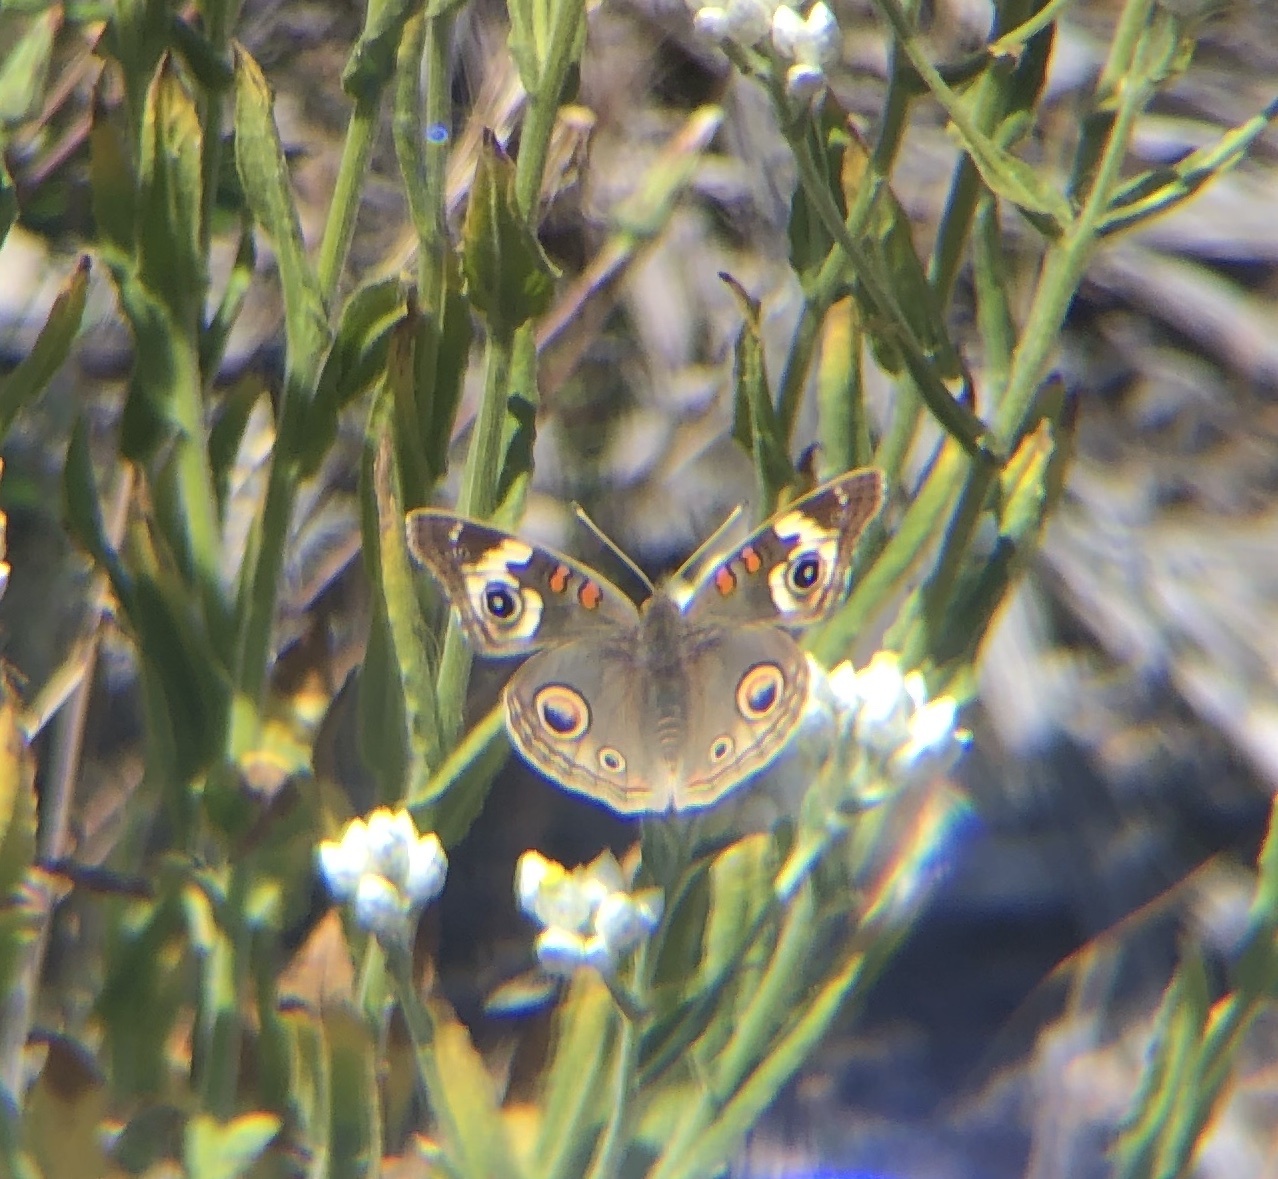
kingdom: Animalia
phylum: Arthropoda
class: Insecta
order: Lepidoptera
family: Nymphalidae
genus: Junonia
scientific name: Junonia grisea
